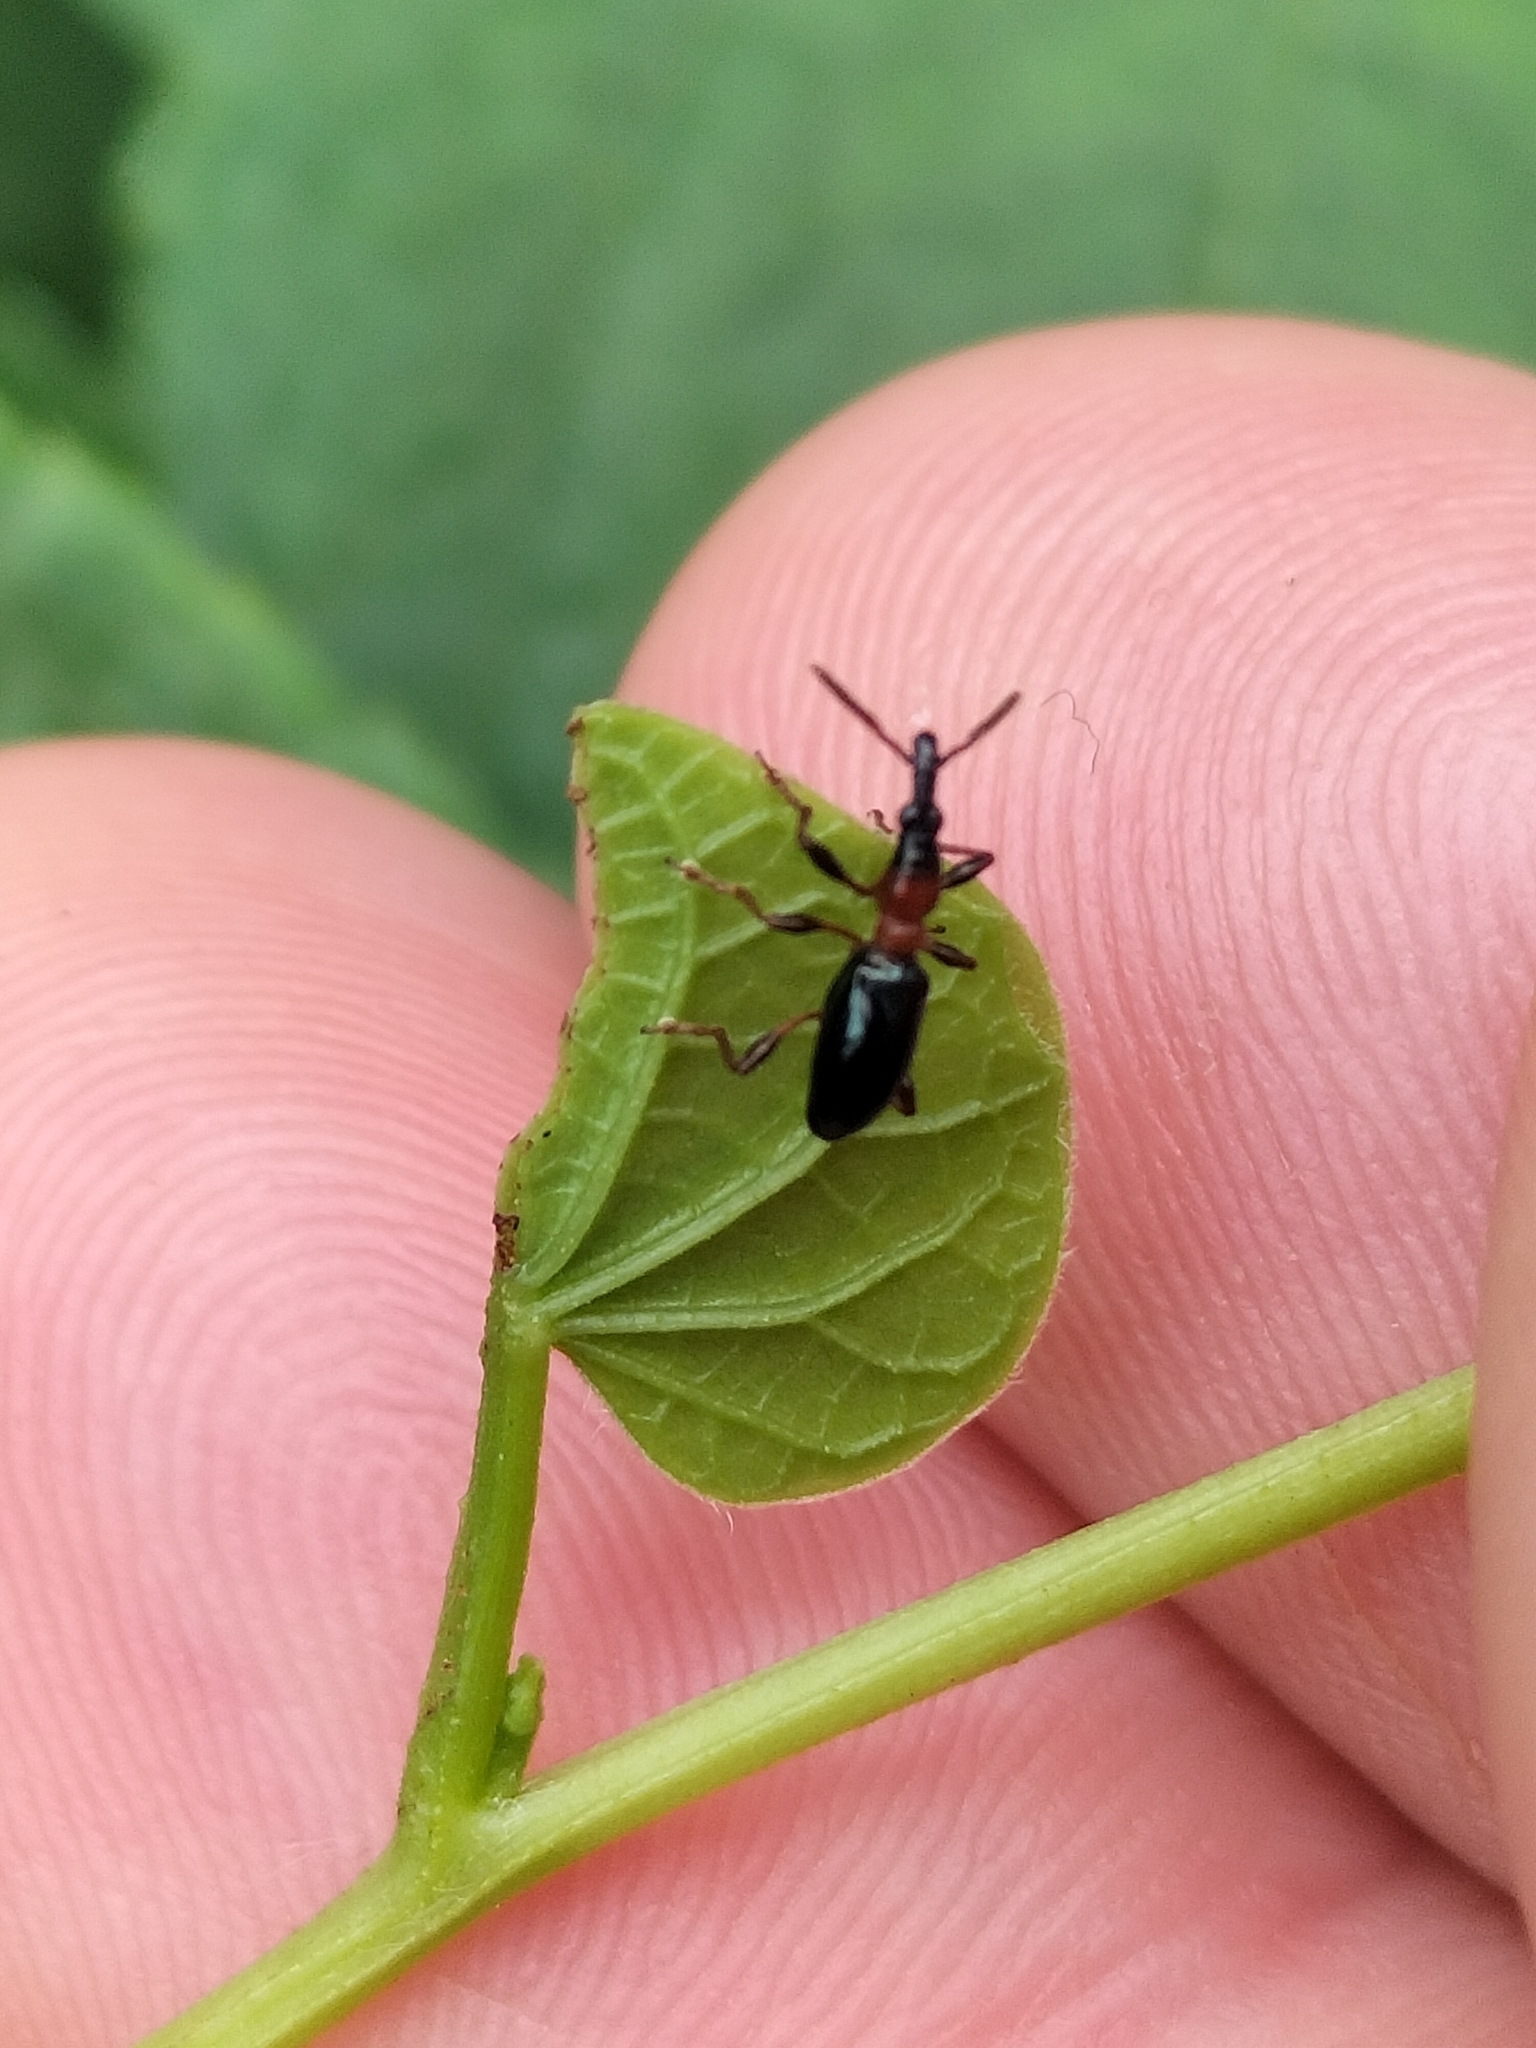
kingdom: Animalia
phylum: Arthropoda
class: Insecta
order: Coleoptera
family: Brentidae
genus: Cylas
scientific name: Cylas formicarius
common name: Sweetpotato weevil
